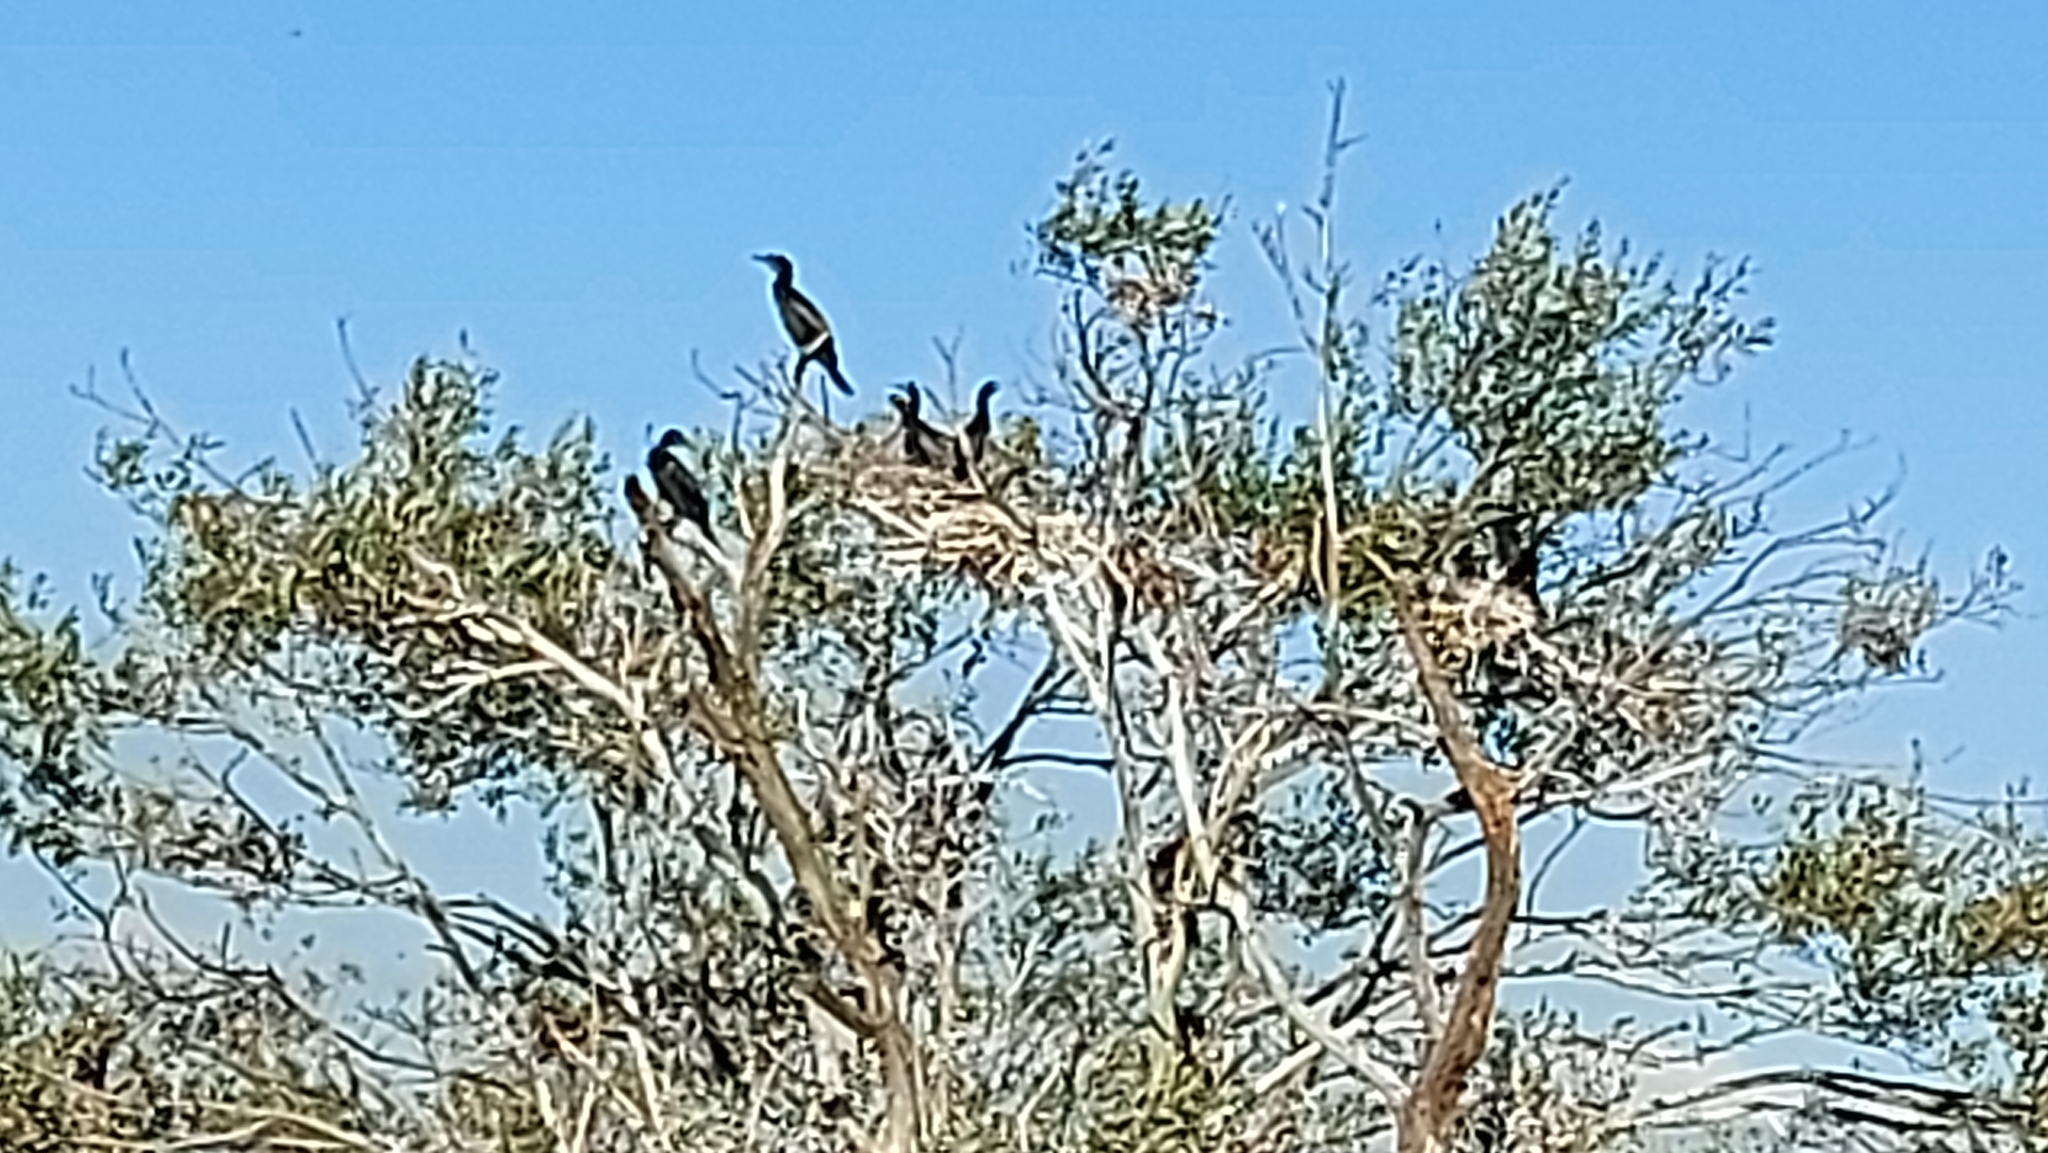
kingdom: Animalia
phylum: Chordata
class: Aves
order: Suliformes
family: Phalacrocoracidae
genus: Phalacrocorax
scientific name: Phalacrocorax sulcirostris
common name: Little black cormorant
